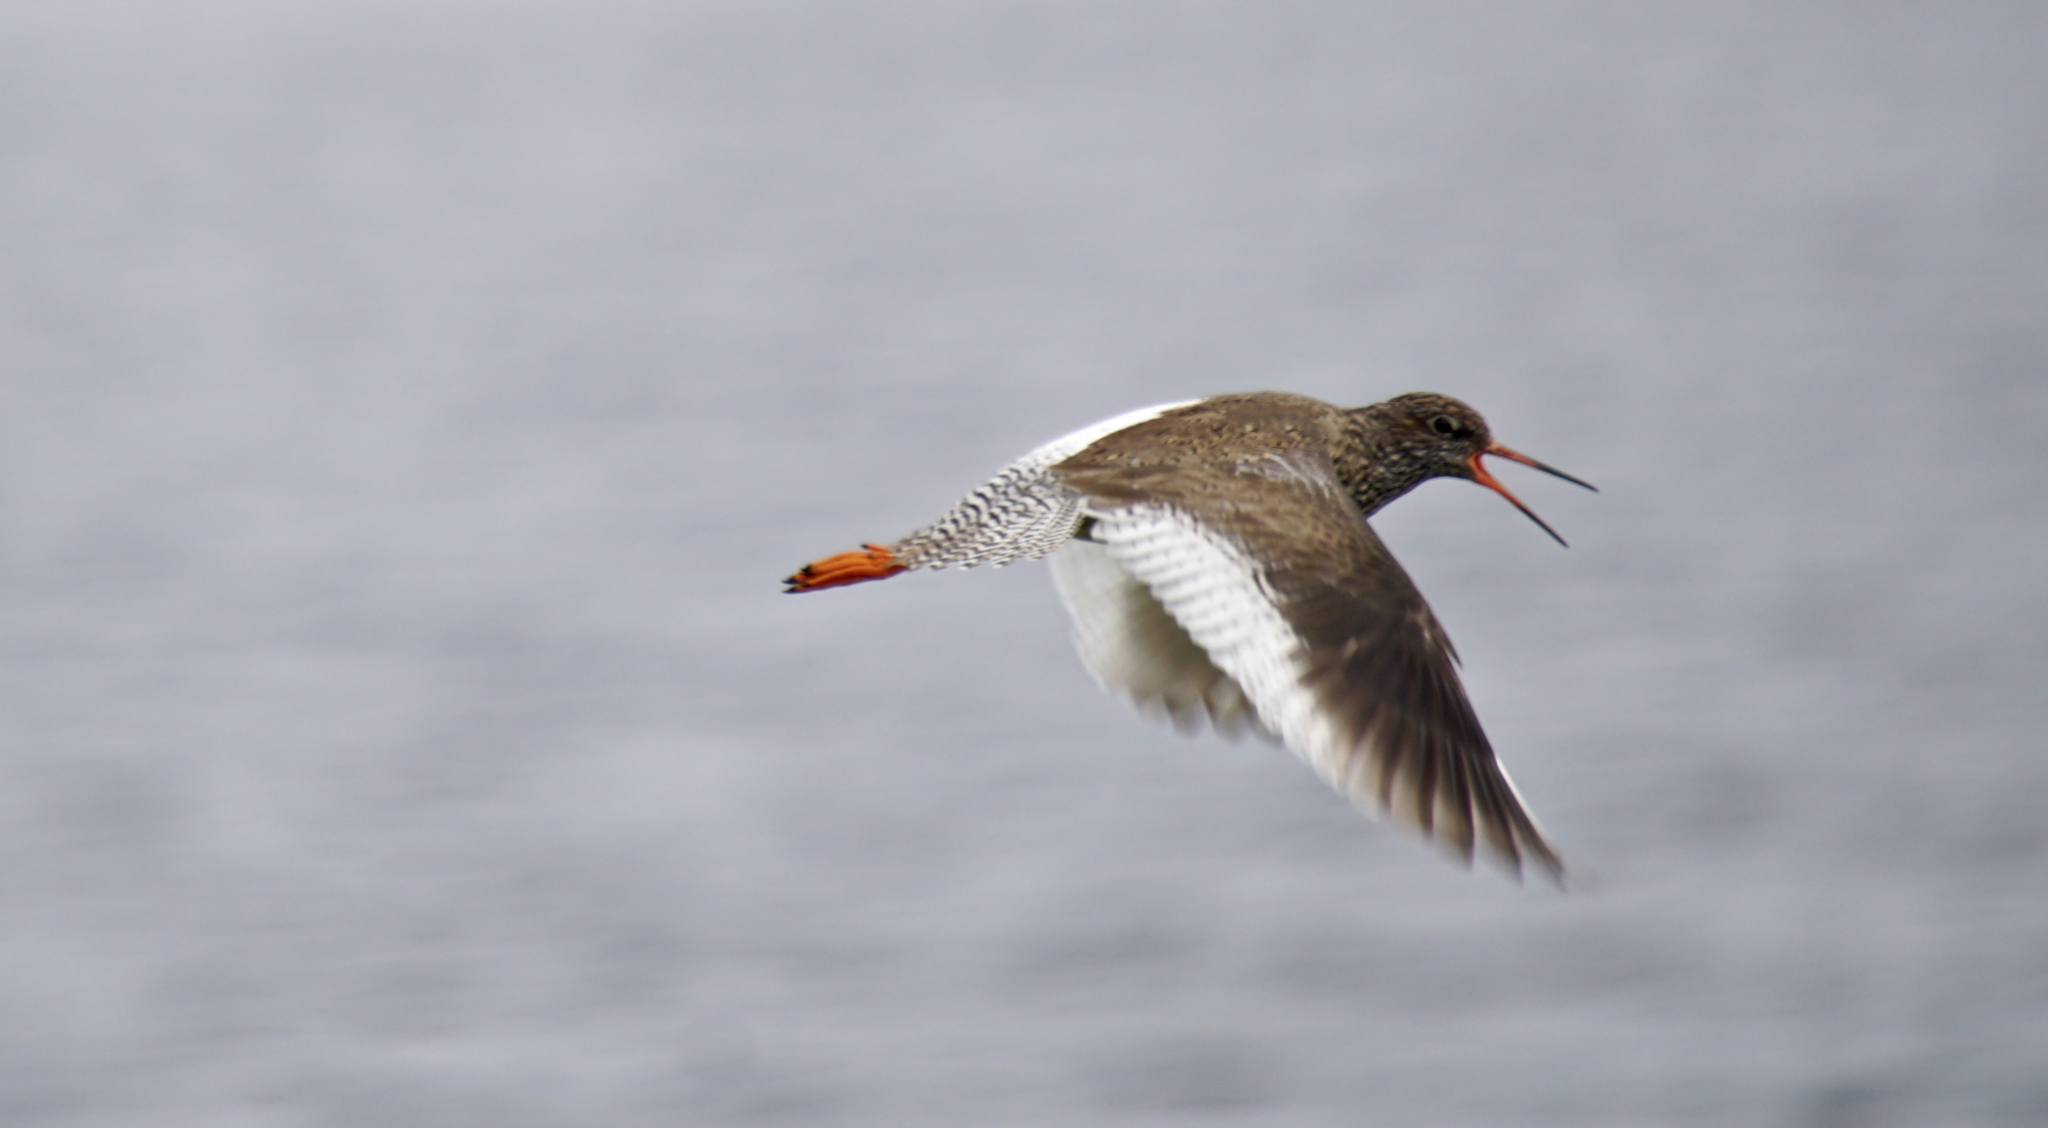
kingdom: Animalia
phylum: Chordata
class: Aves
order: Charadriiformes
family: Scolopacidae
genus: Tringa
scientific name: Tringa totanus
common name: Common redshank
